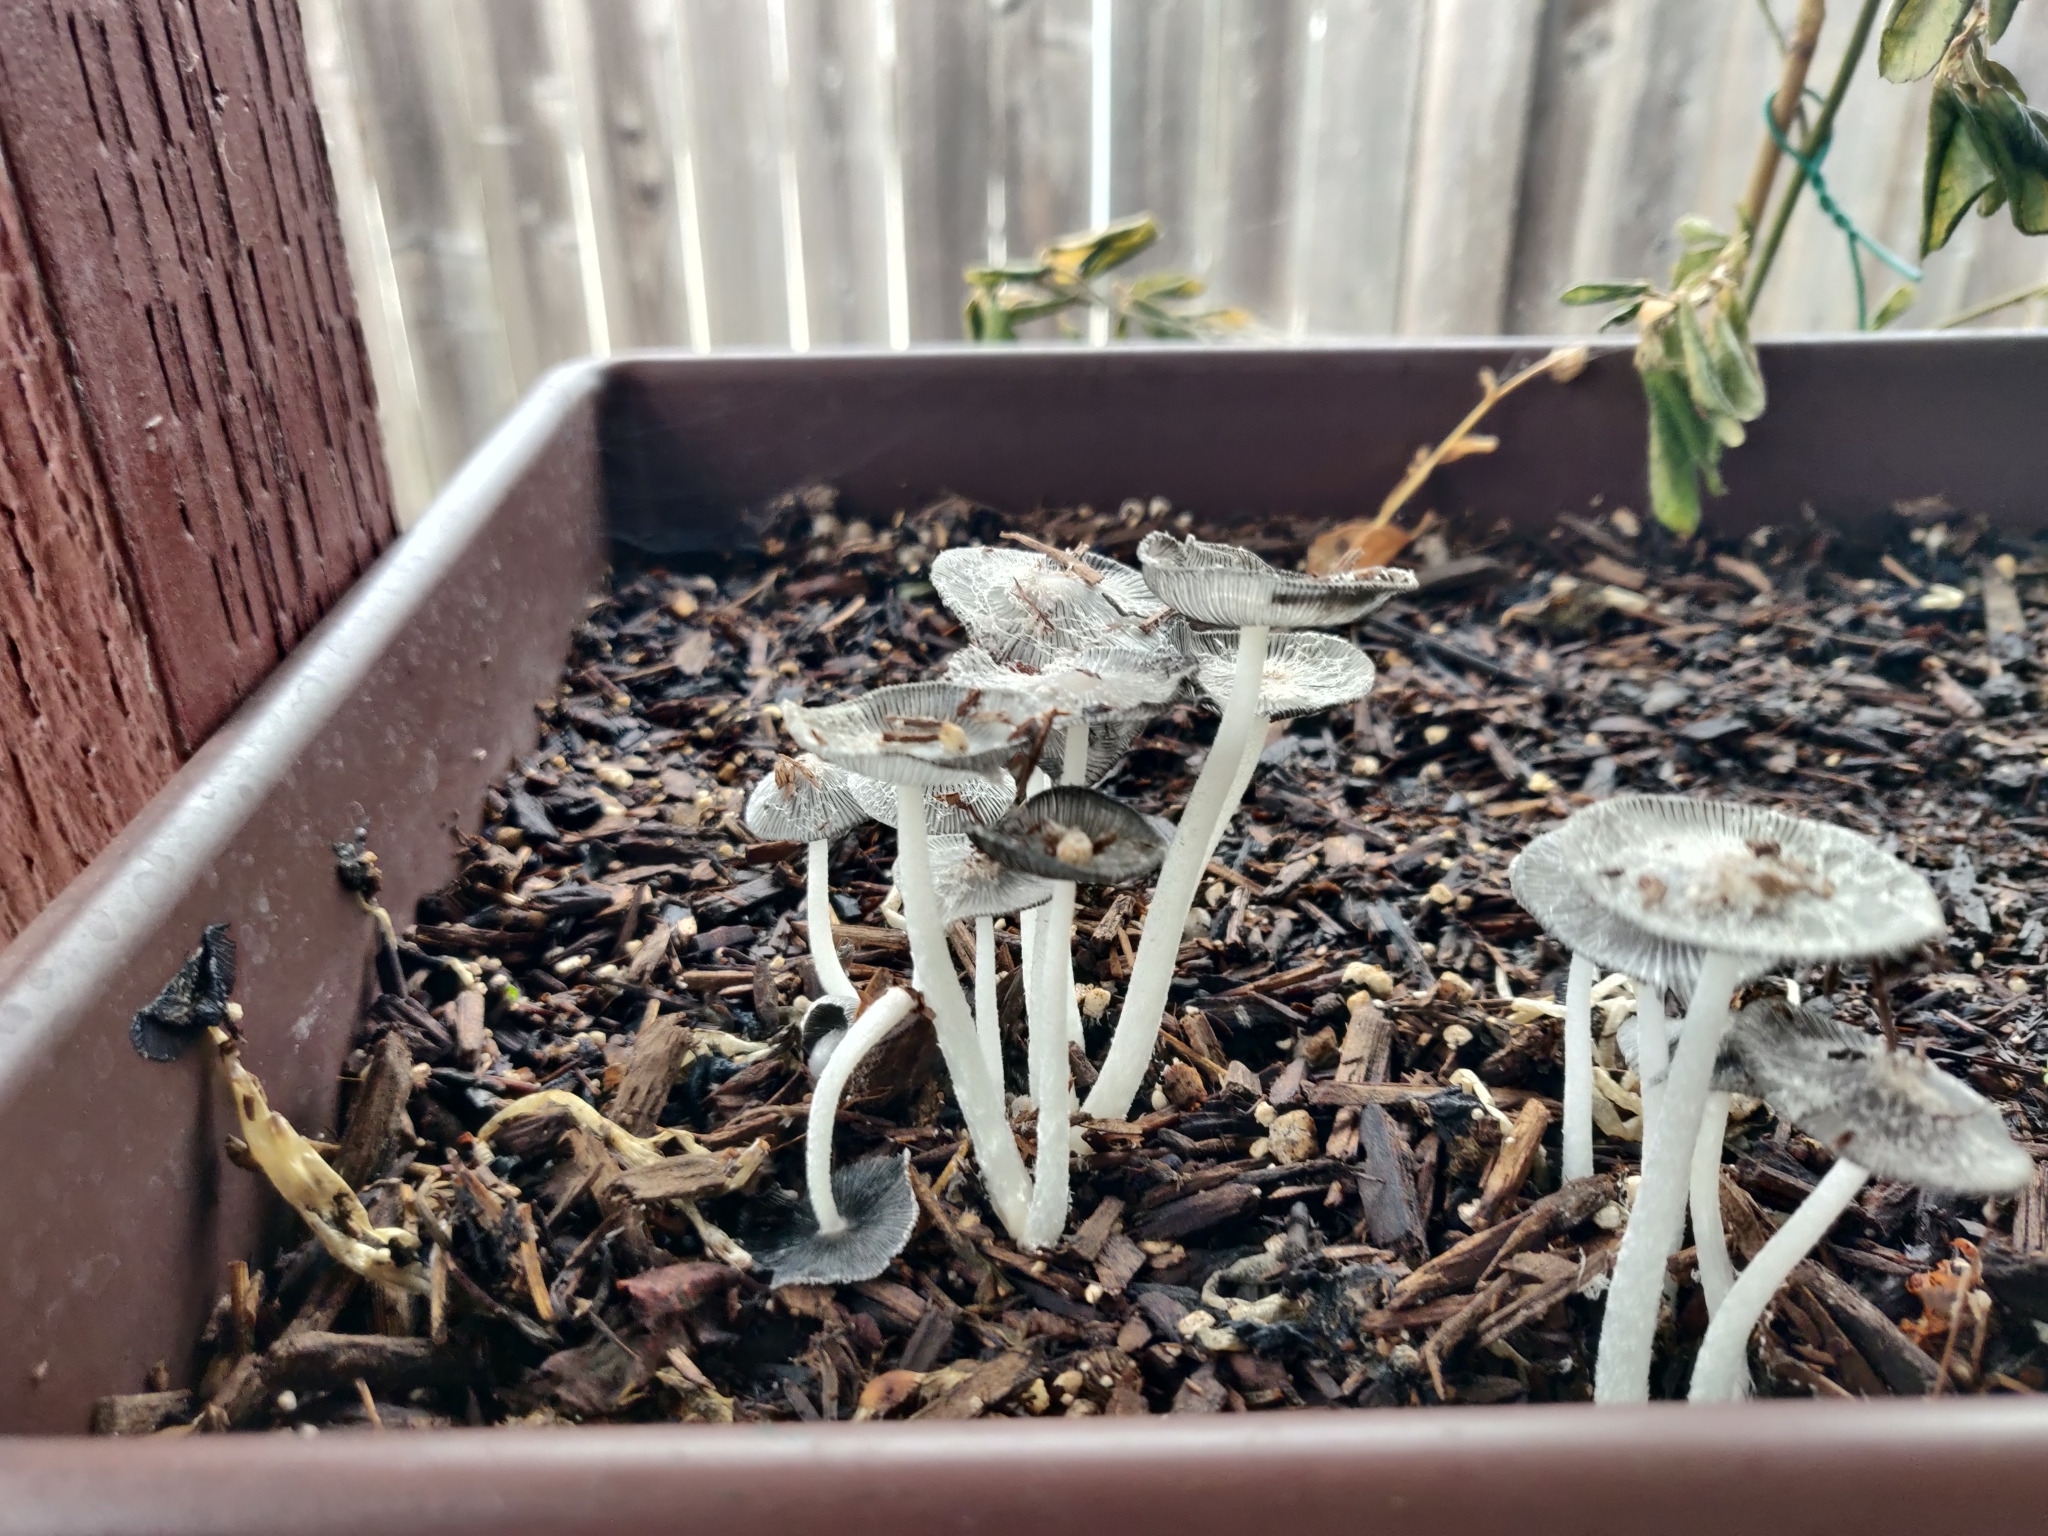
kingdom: Fungi
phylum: Basidiomycota
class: Agaricomycetes
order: Agaricales
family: Psathyrellaceae
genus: Coprinopsis
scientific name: Coprinopsis lagopus
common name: Hare'sfoot inkcap
